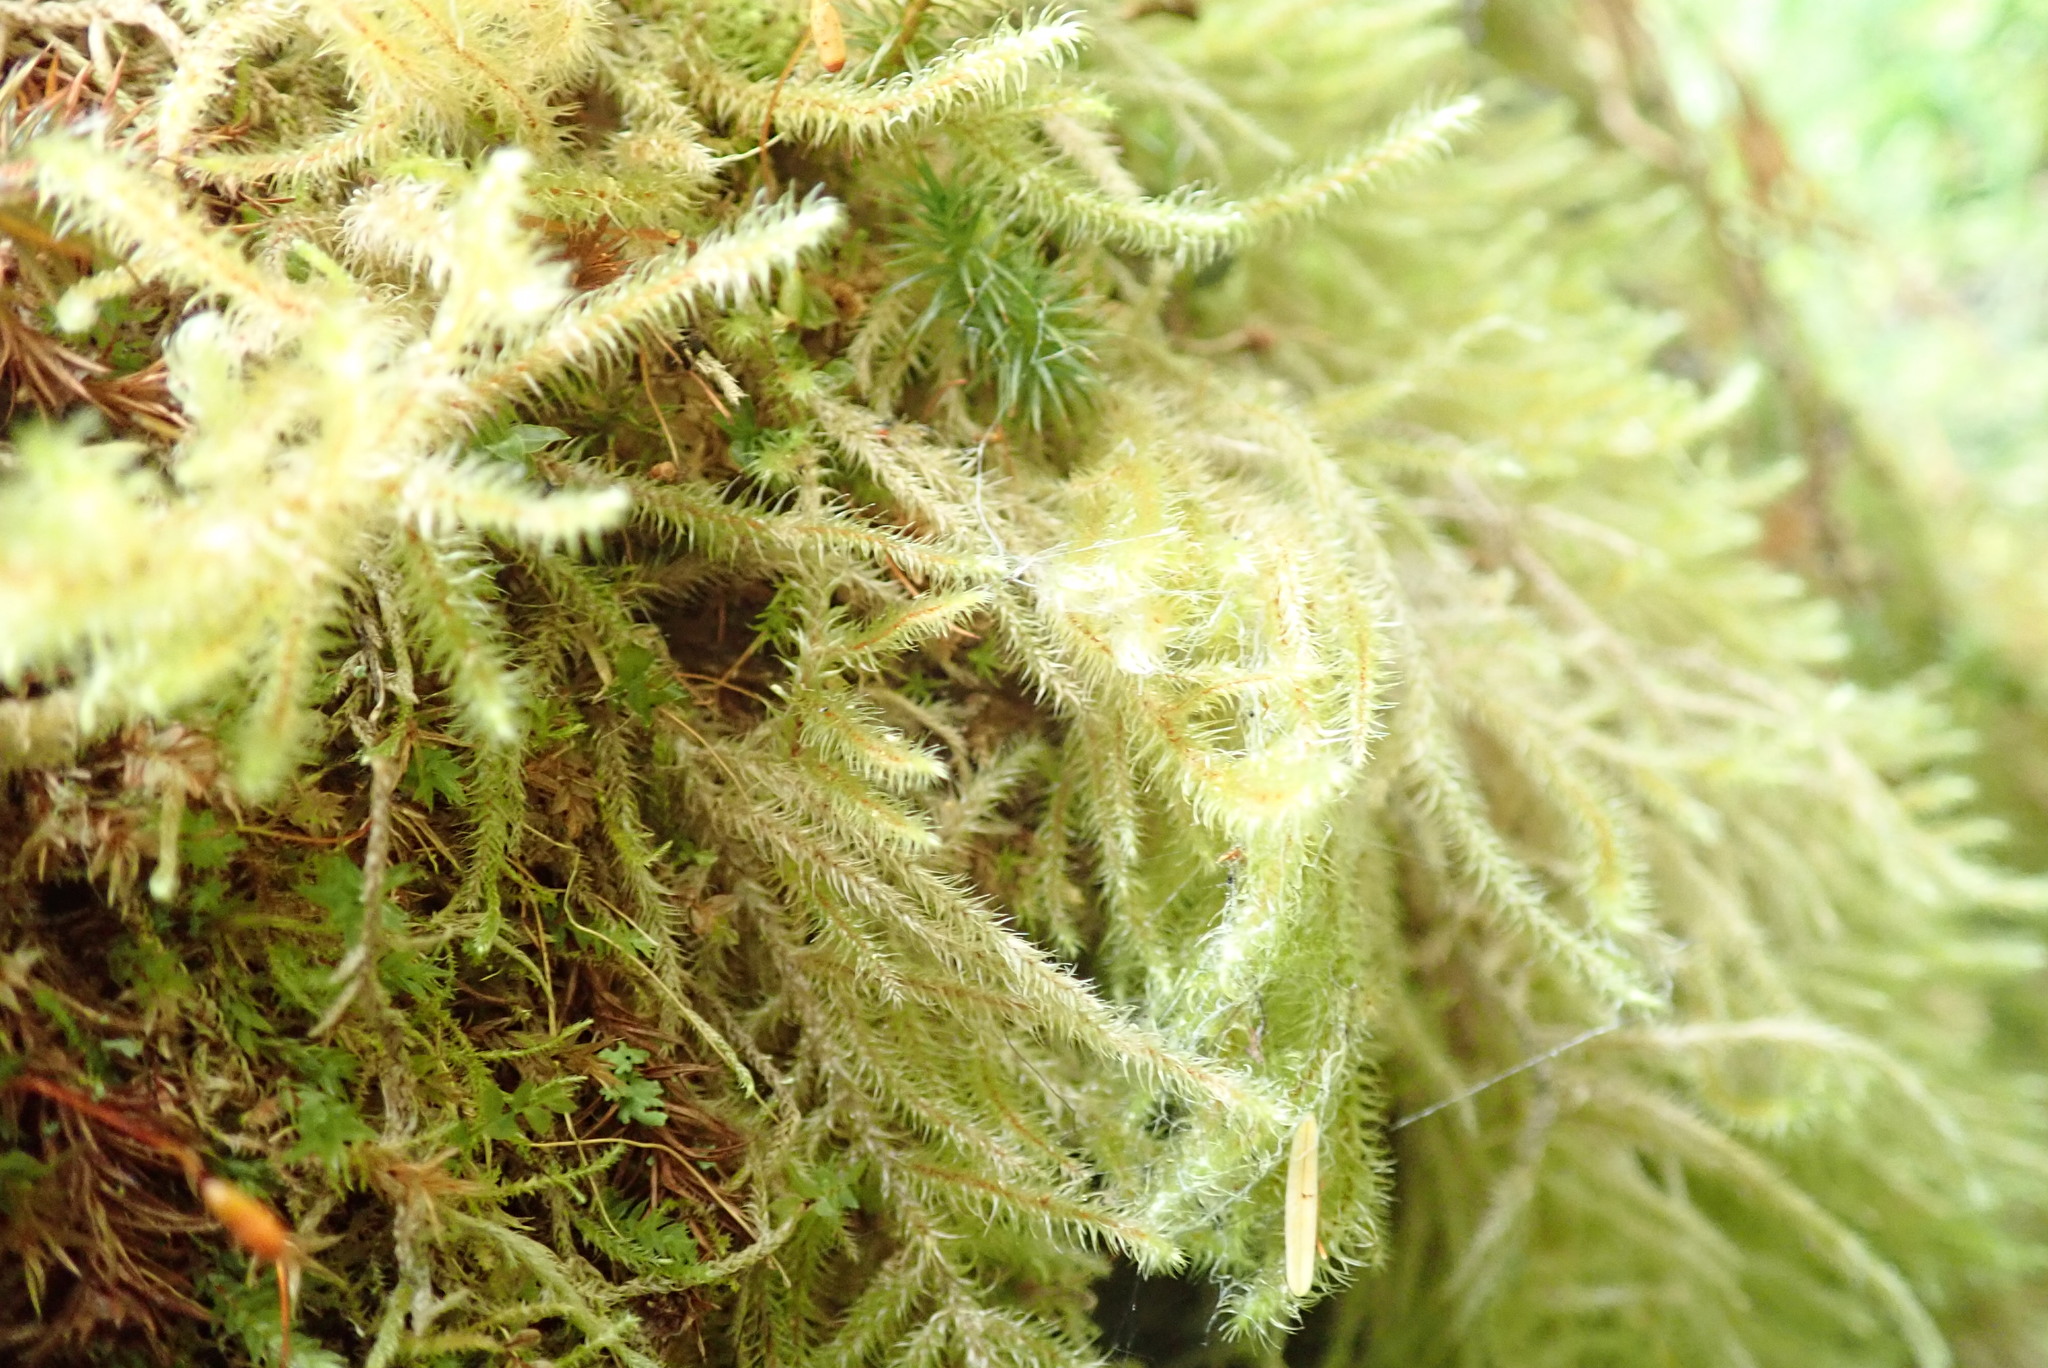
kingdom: Plantae
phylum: Bryophyta
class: Bryopsida
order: Hypnales
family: Hylocomiaceae
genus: Rhytidiadelphus
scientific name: Rhytidiadelphus loreus
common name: Lanky moss
